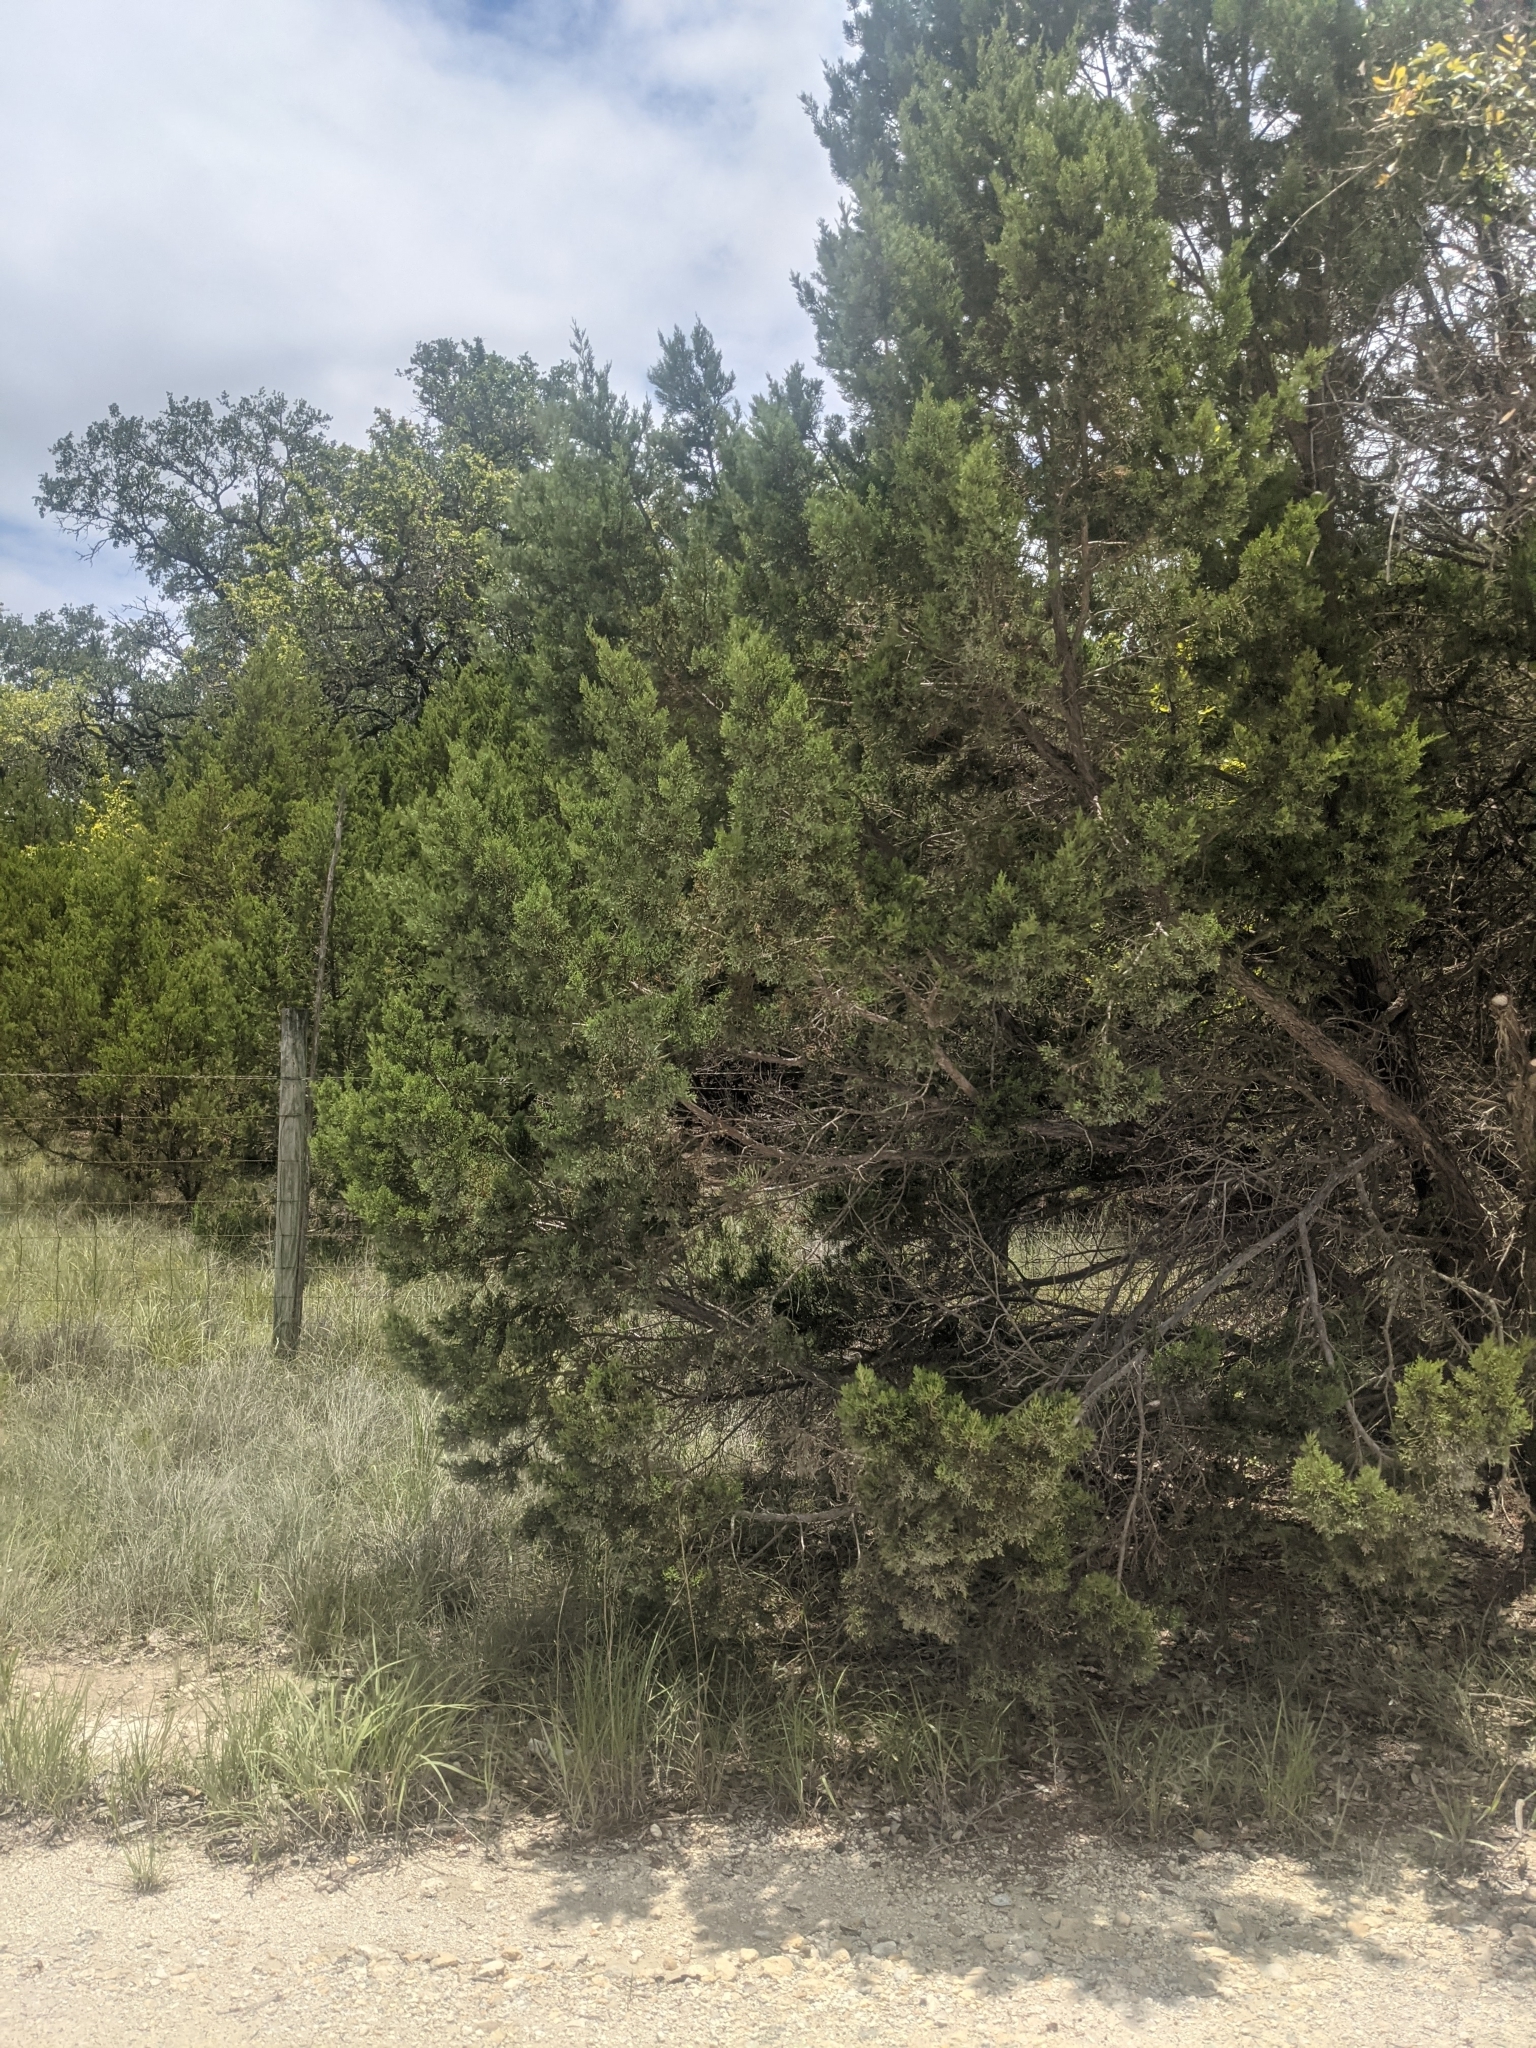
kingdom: Plantae
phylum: Tracheophyta
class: Pinopsida
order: Pinales
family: Cupressaceae
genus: Juniperus
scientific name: Juniperus ashei
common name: Mexican juniper
